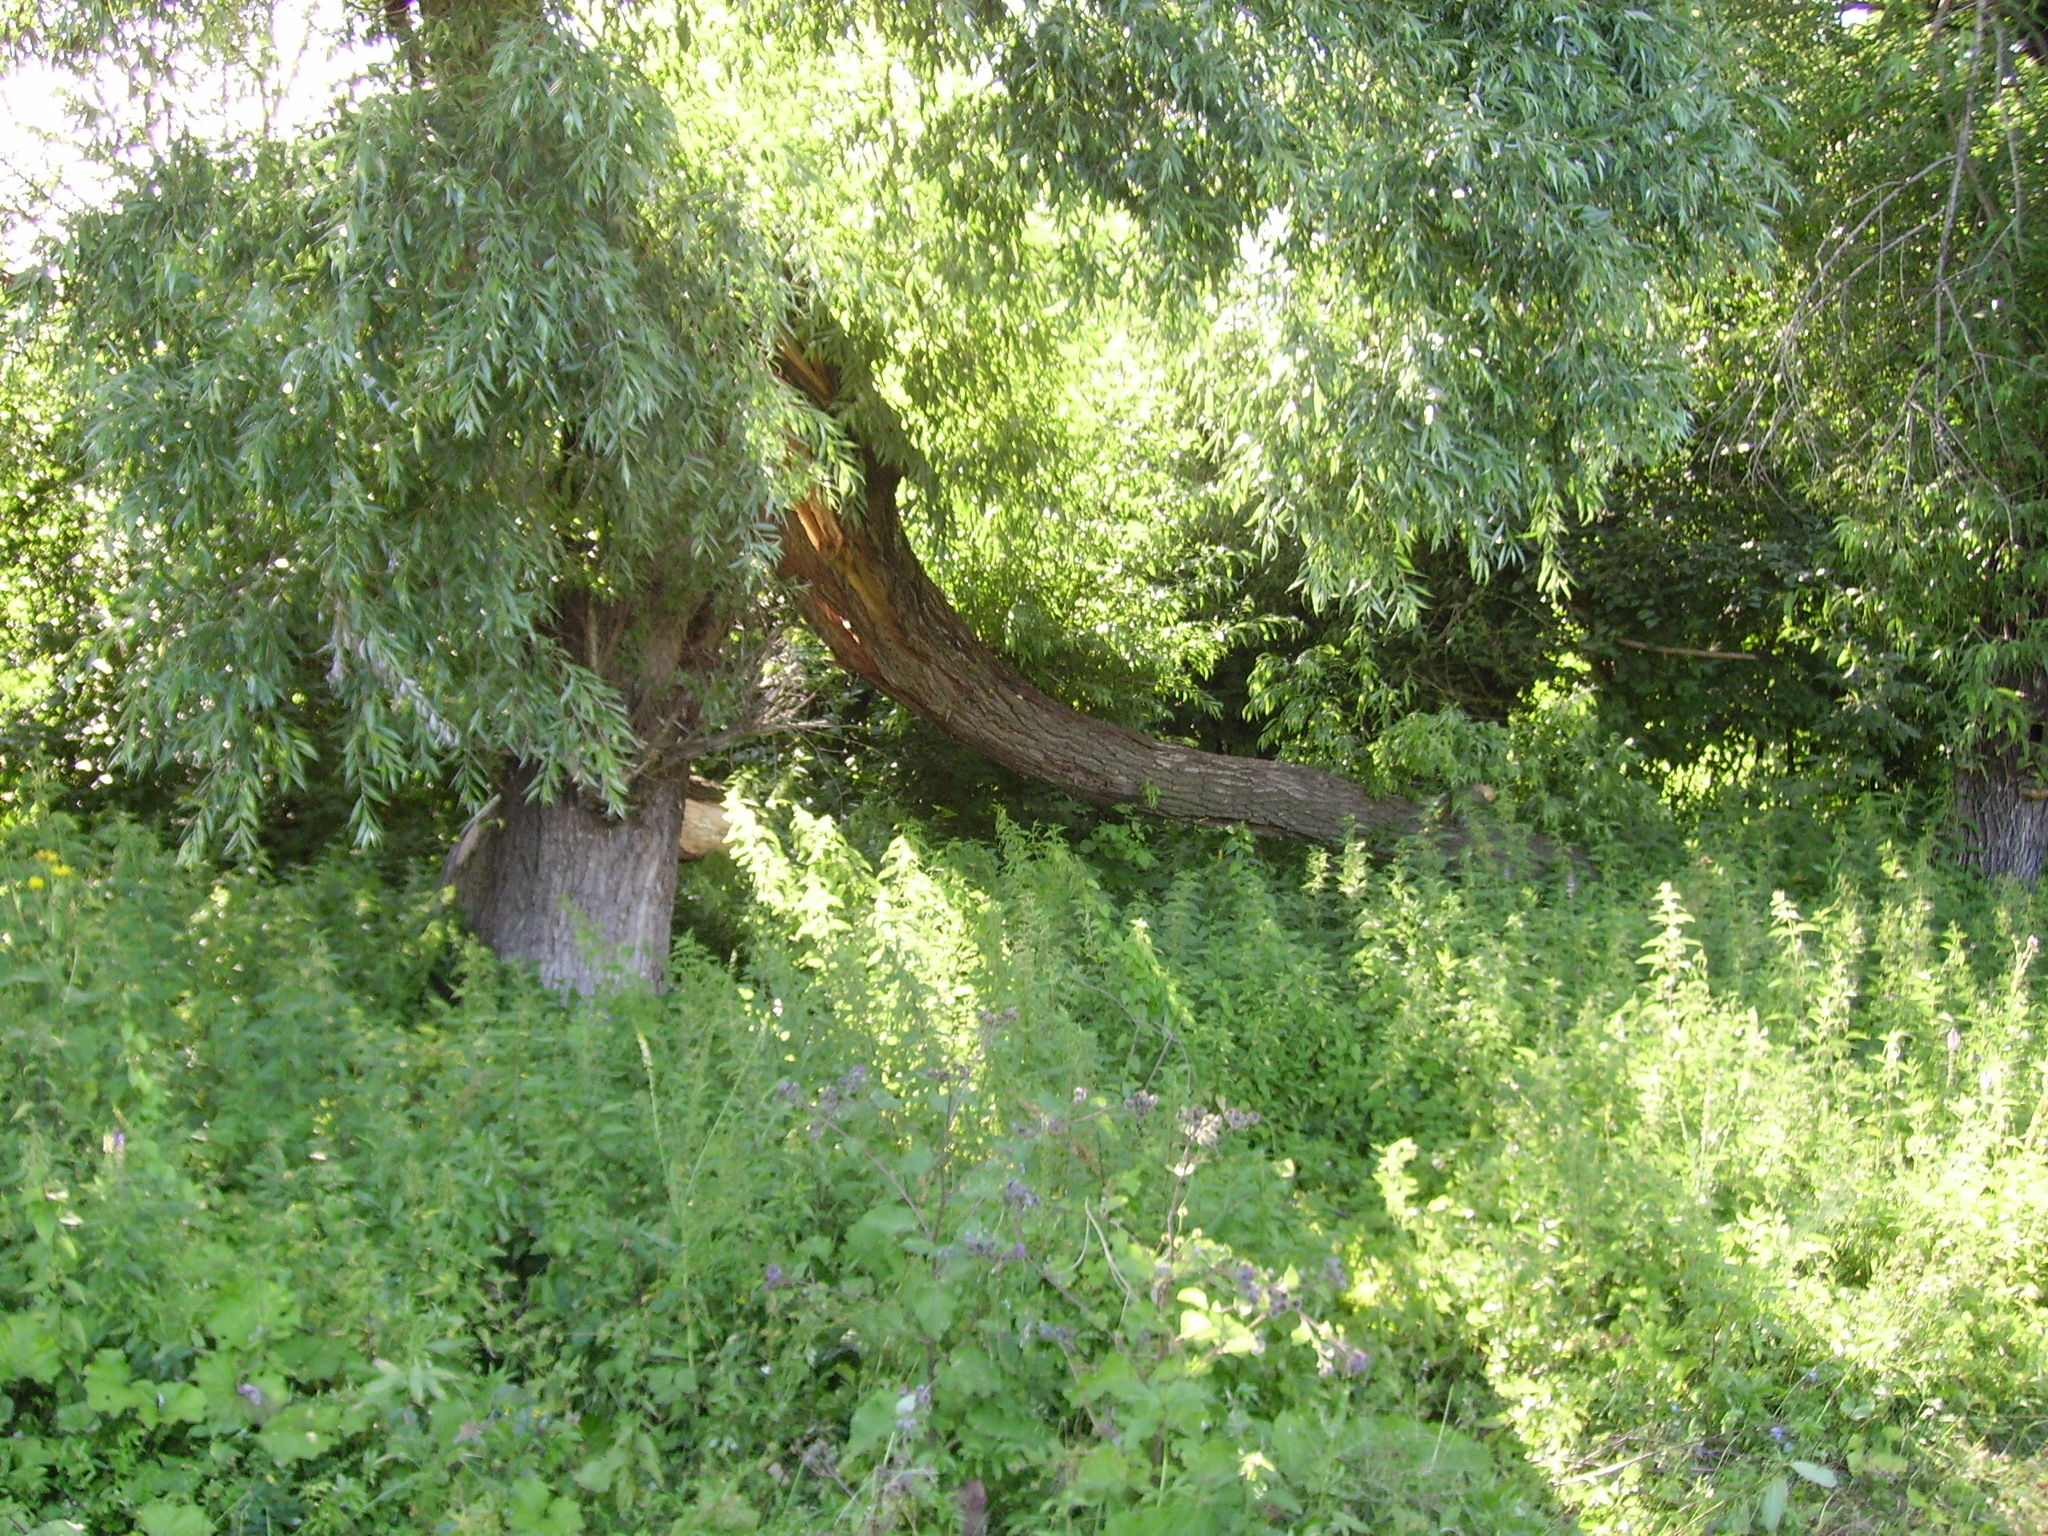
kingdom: Plantae
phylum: Tracheophyta
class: Magnoliopsida
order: Malpighiales
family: Salicaceae
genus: Salix
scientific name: Salix alba
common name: White willow
